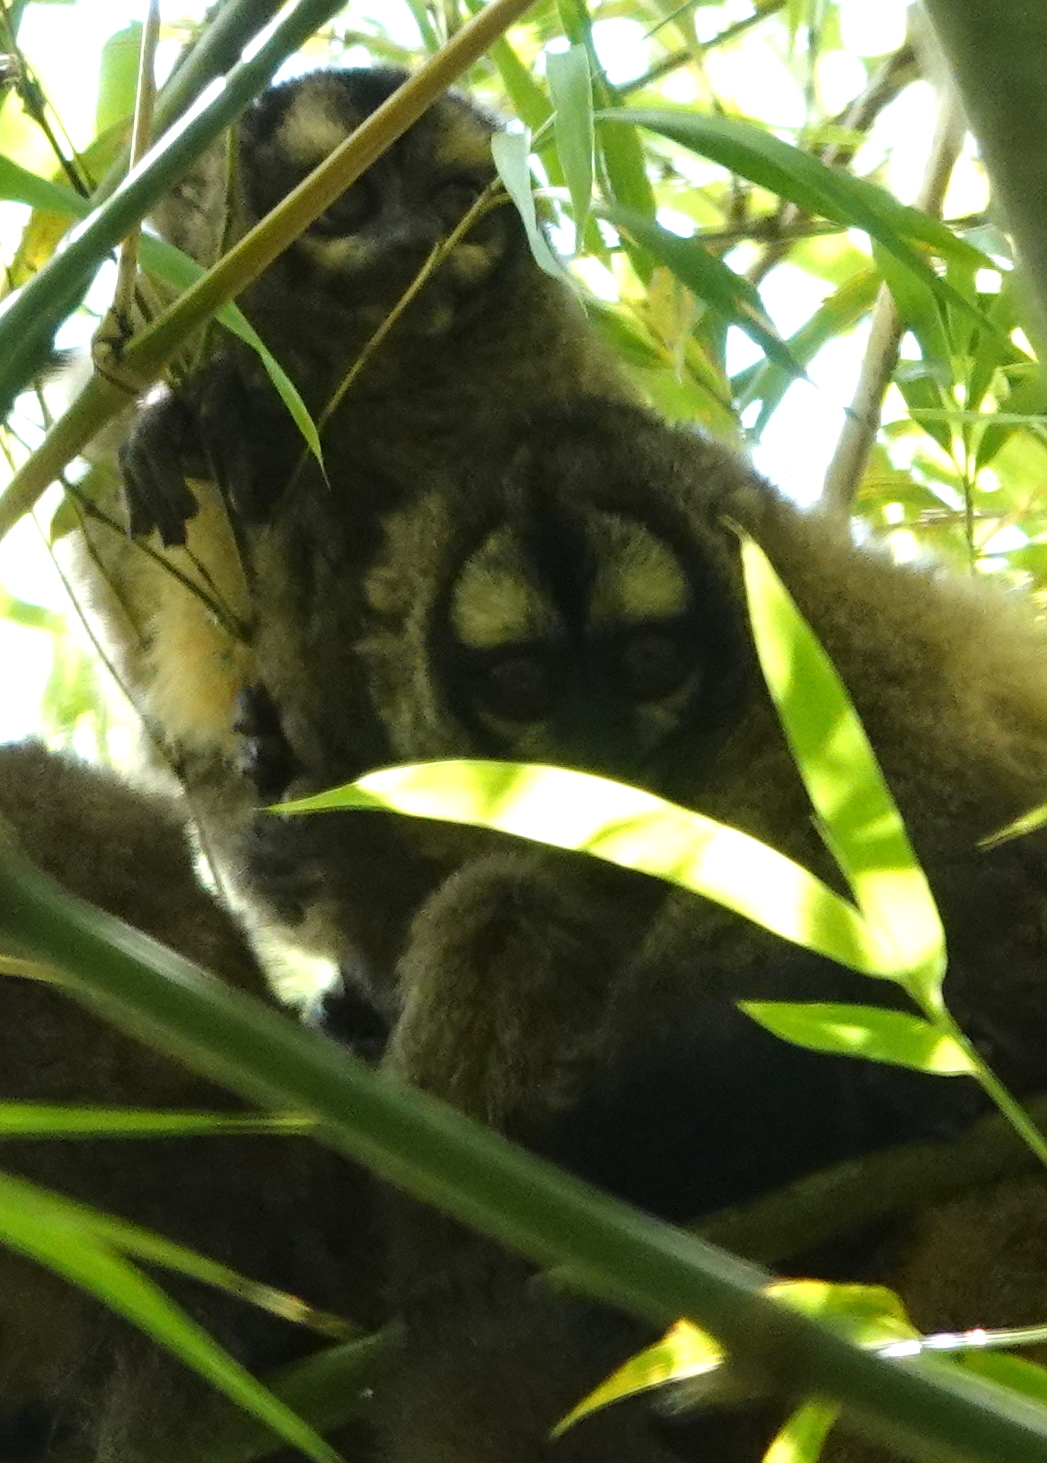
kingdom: Animalia
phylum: Chordata
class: Mammalia
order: Primates
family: Aotidae
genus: Aotus
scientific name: Aotus lemurinus
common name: Gray-bellied night monkey
